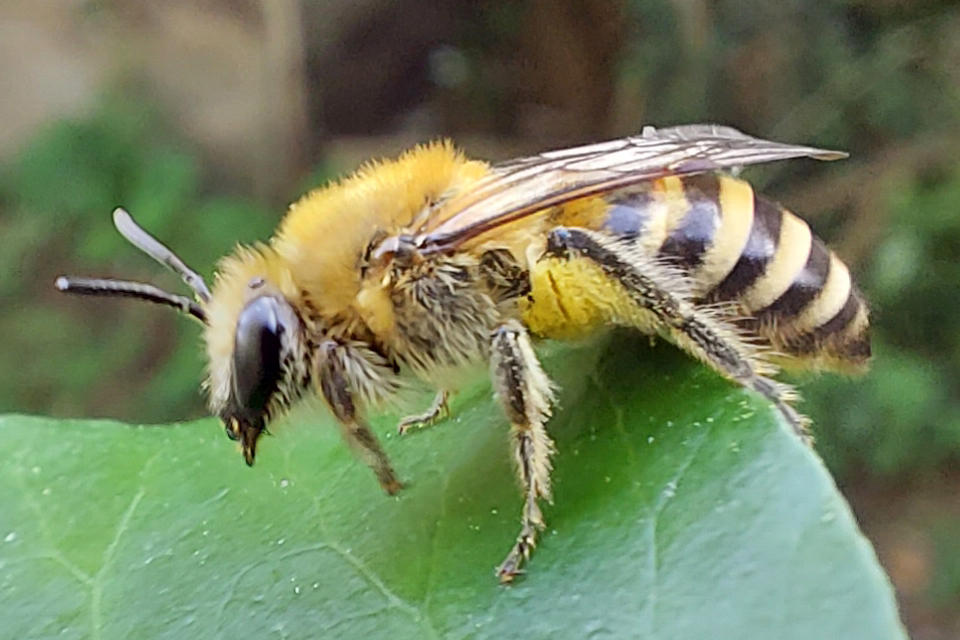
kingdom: Animalia
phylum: Arthropoda
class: Insecta
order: Hymenoptera
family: Colletidae
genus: Colletes
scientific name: Colletes hederae
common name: Ivy bee
